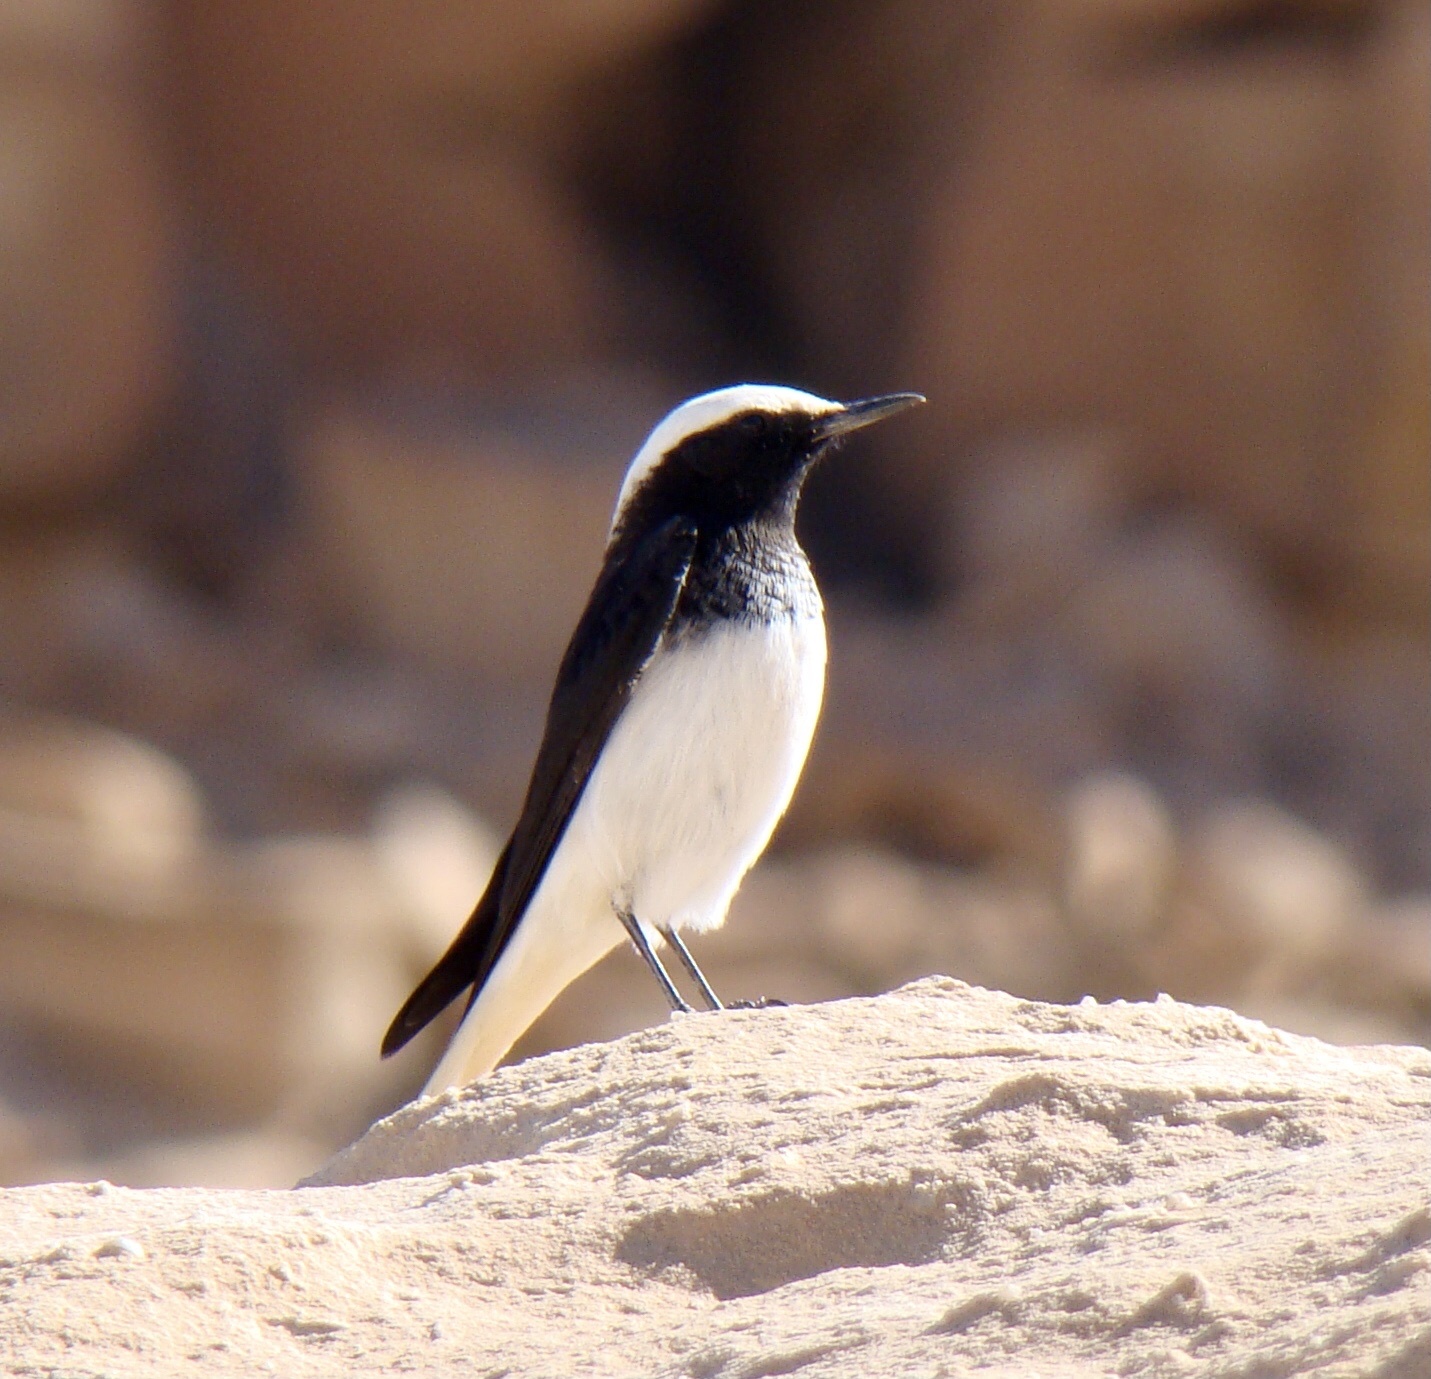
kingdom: Animalia
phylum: Chordata
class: Aves
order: Passeriformes
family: Muscicapidae
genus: Oenanthe
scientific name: Oenanthe monacha
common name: Hooded wheatear
